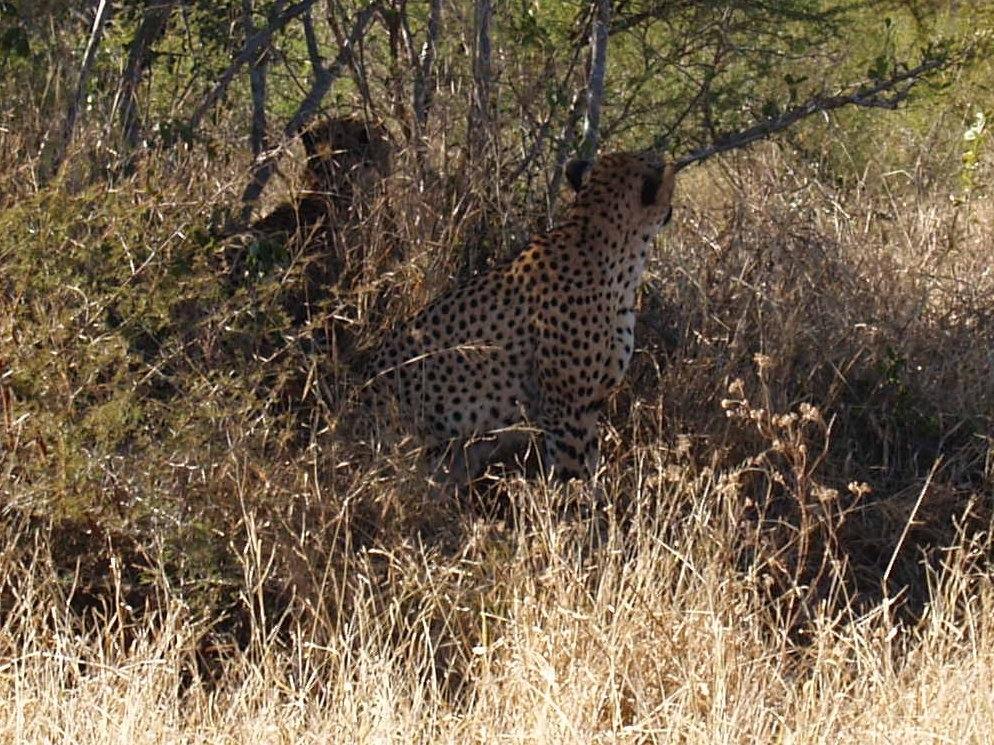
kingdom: Animalia
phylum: Chordata
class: Mammalia
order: Carnivora
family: Felidae
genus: Acinonyx
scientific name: Acinonyx jubatus
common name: Cheetah
